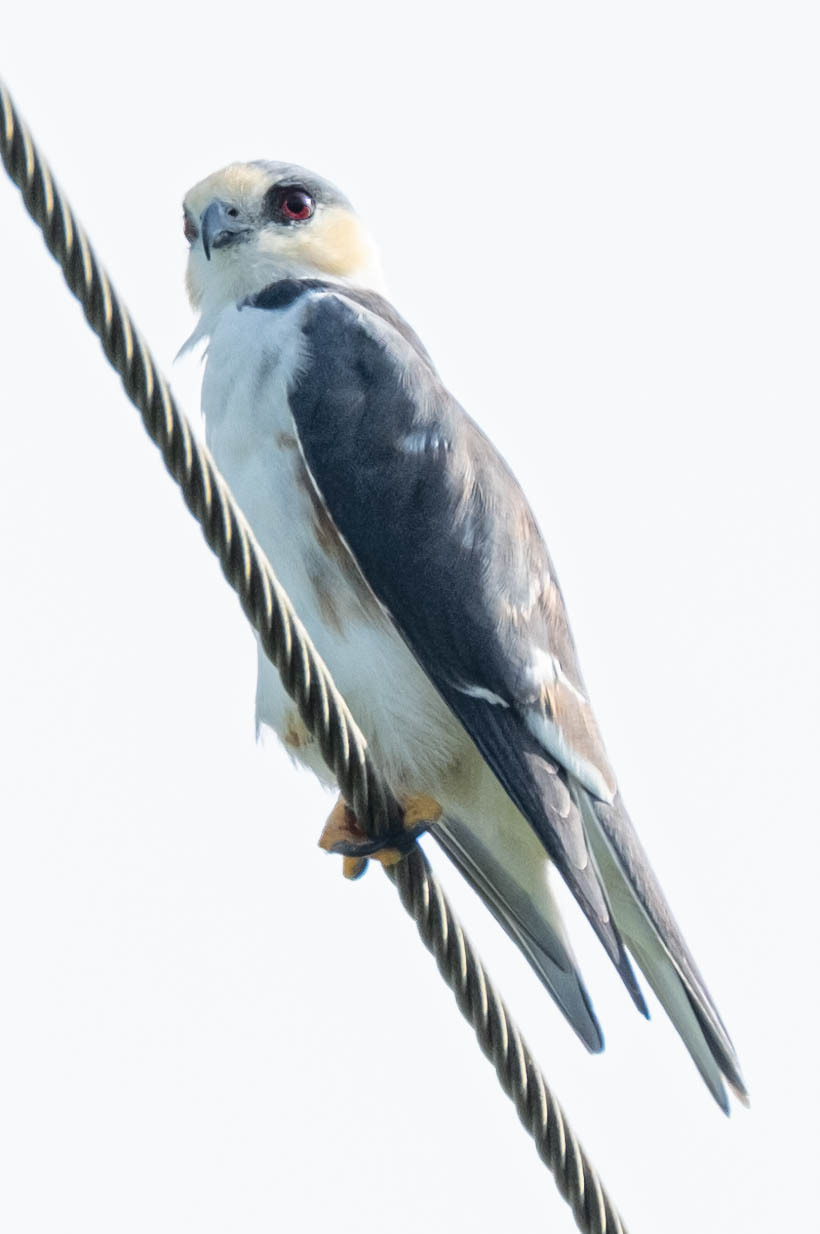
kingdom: Animalia
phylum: Chordata
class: Aves
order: Accipitriformes
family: Accipitridae
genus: Gampsonyx
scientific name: Gampsonyx swainsonii
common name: Pearl kite
